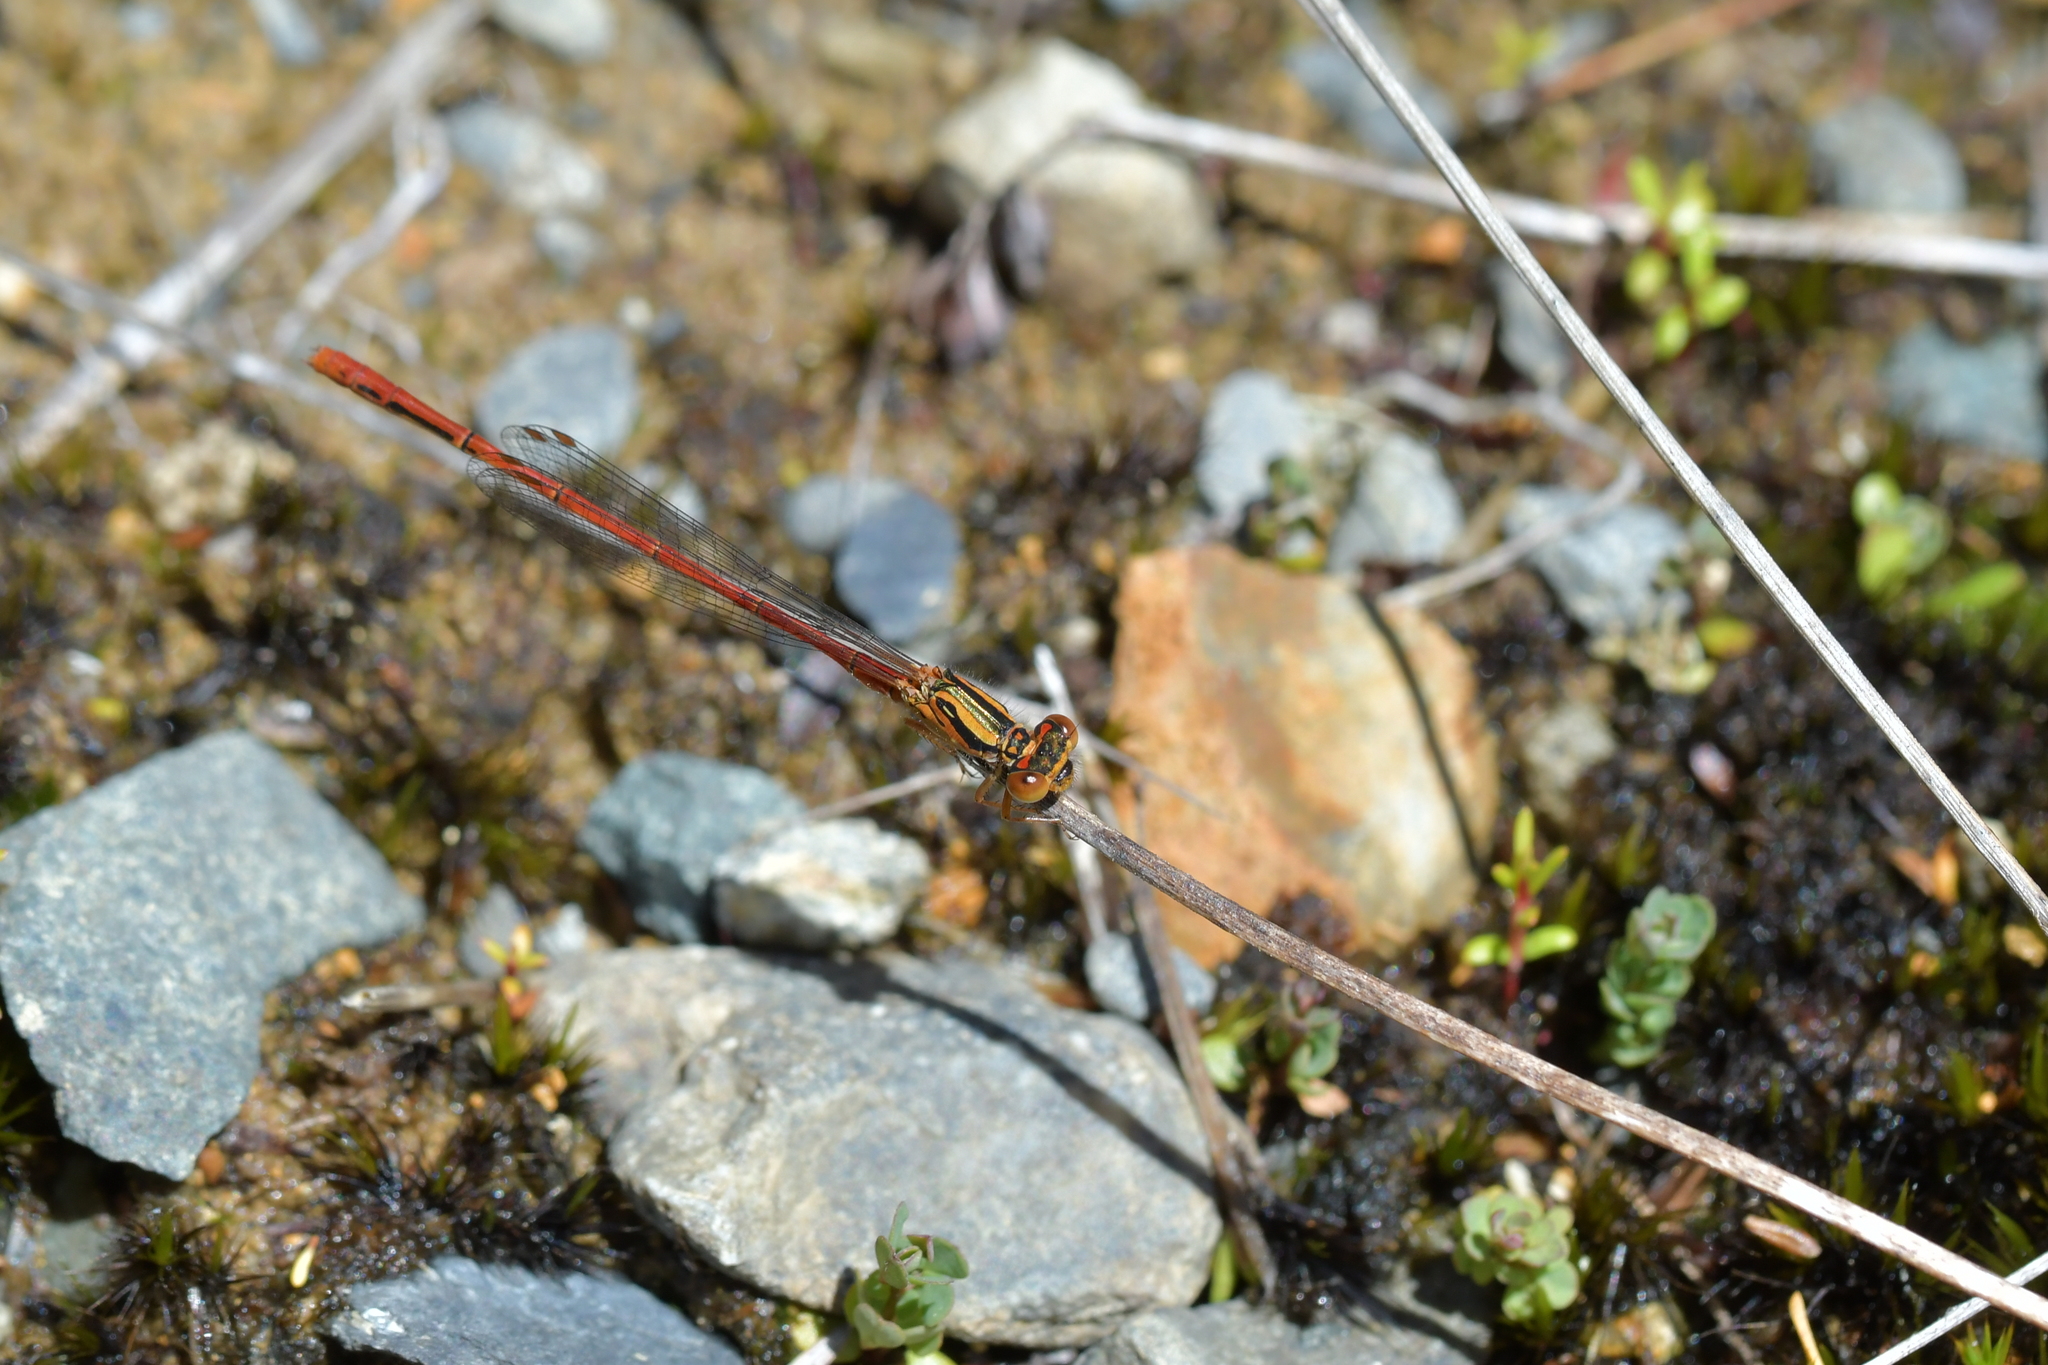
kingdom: Animalia
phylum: Arthropoda
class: Insecta
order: Odonata
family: Coenagrionidae
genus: Xanthocnemis
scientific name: Xanthocnemis zealandica
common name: Common redcoat damselfly
